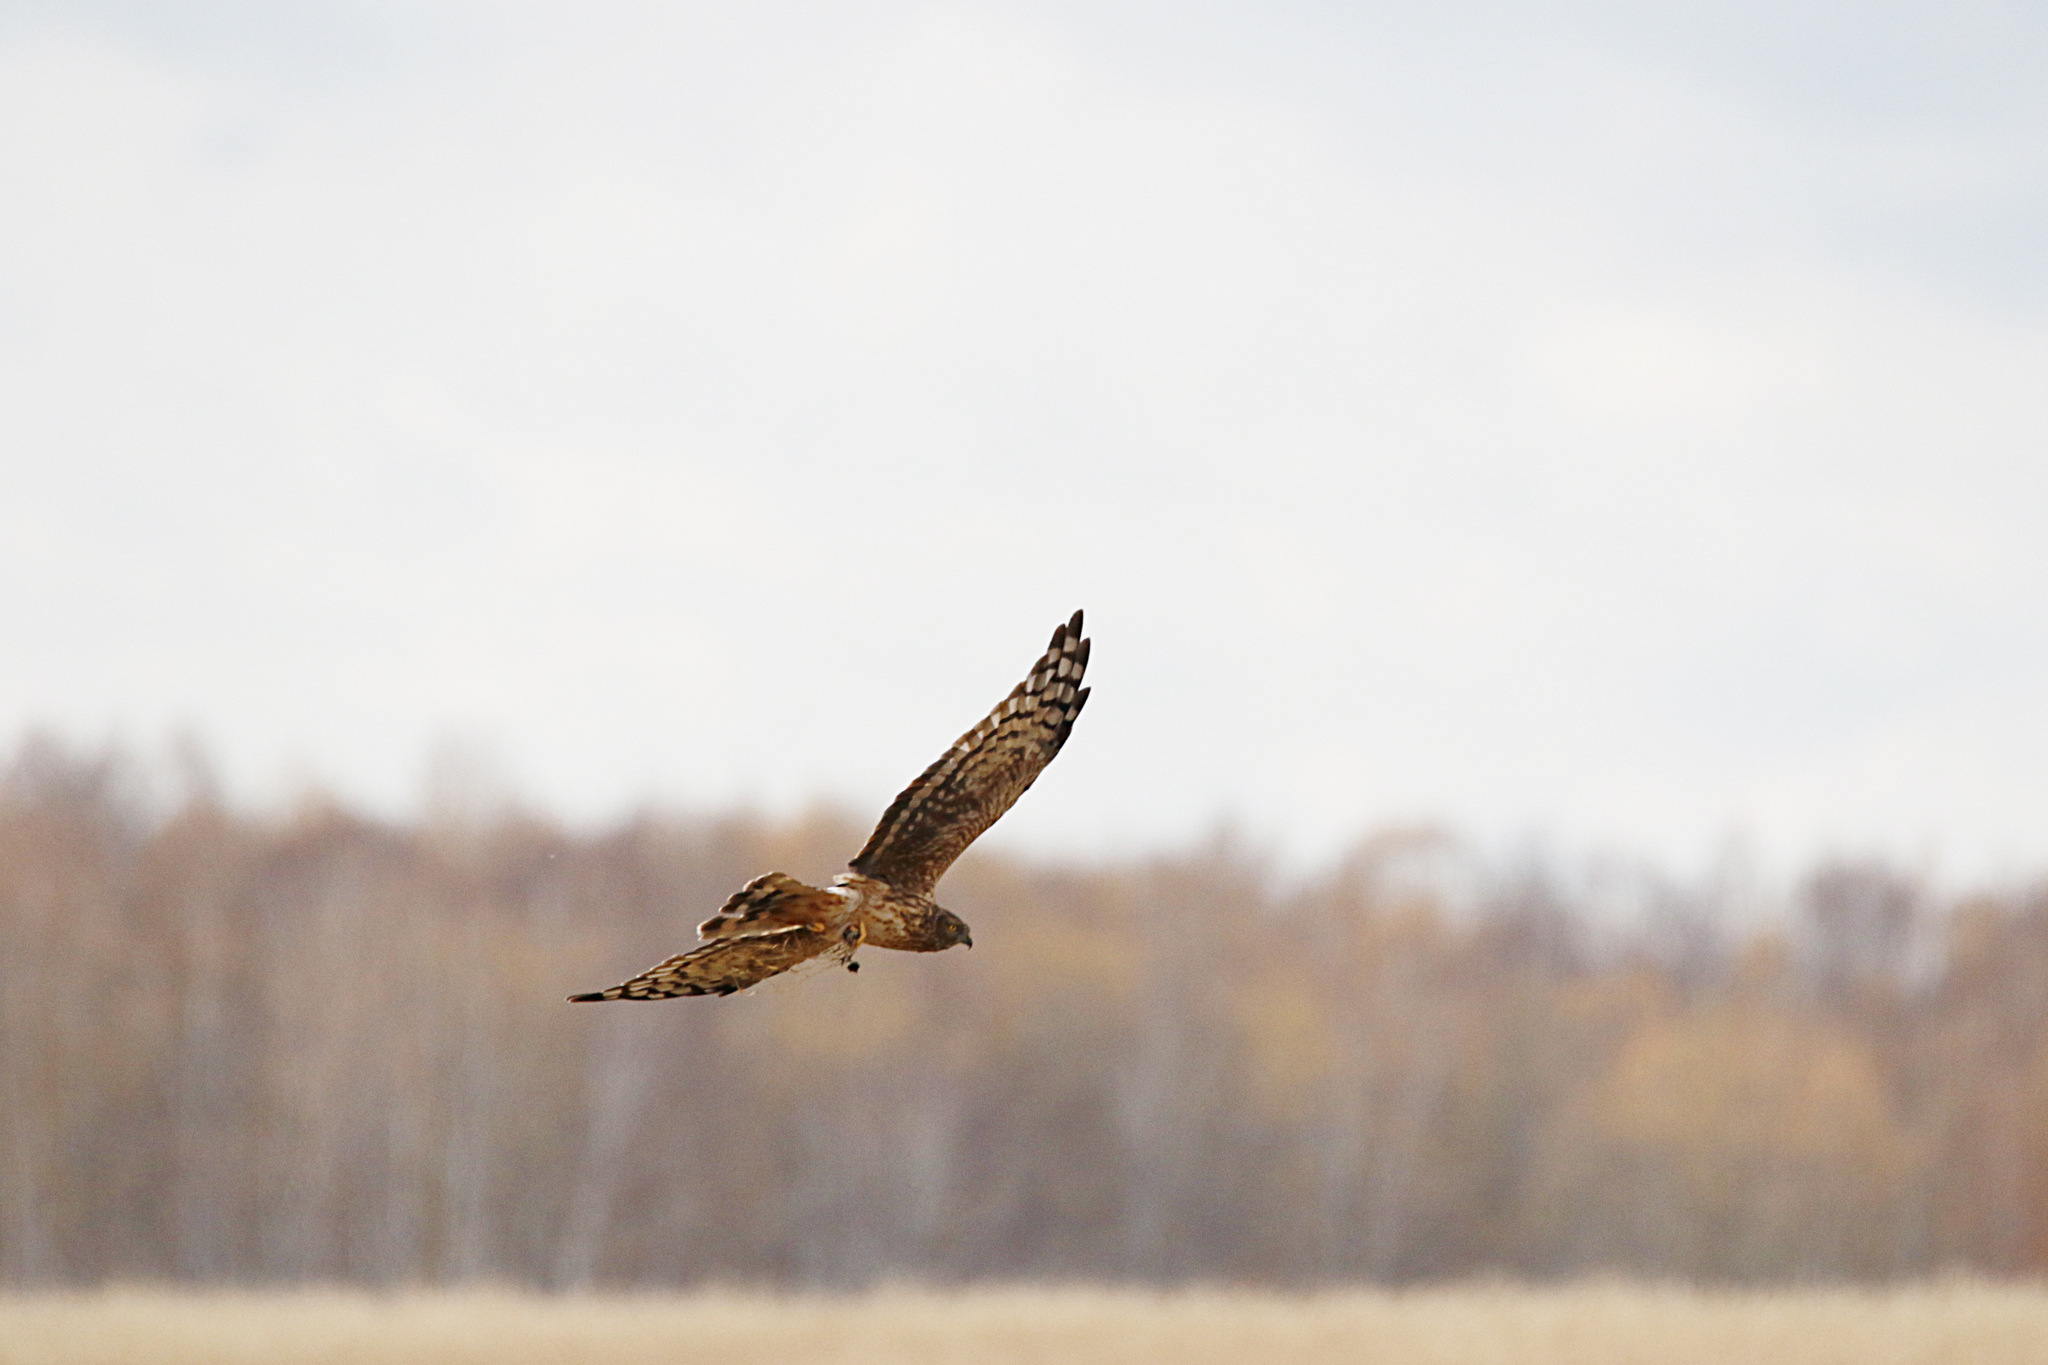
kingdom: Animalia
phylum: Chordata
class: Aves
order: Accipitriformes
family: Accipitridae
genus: Circus
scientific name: Circus
